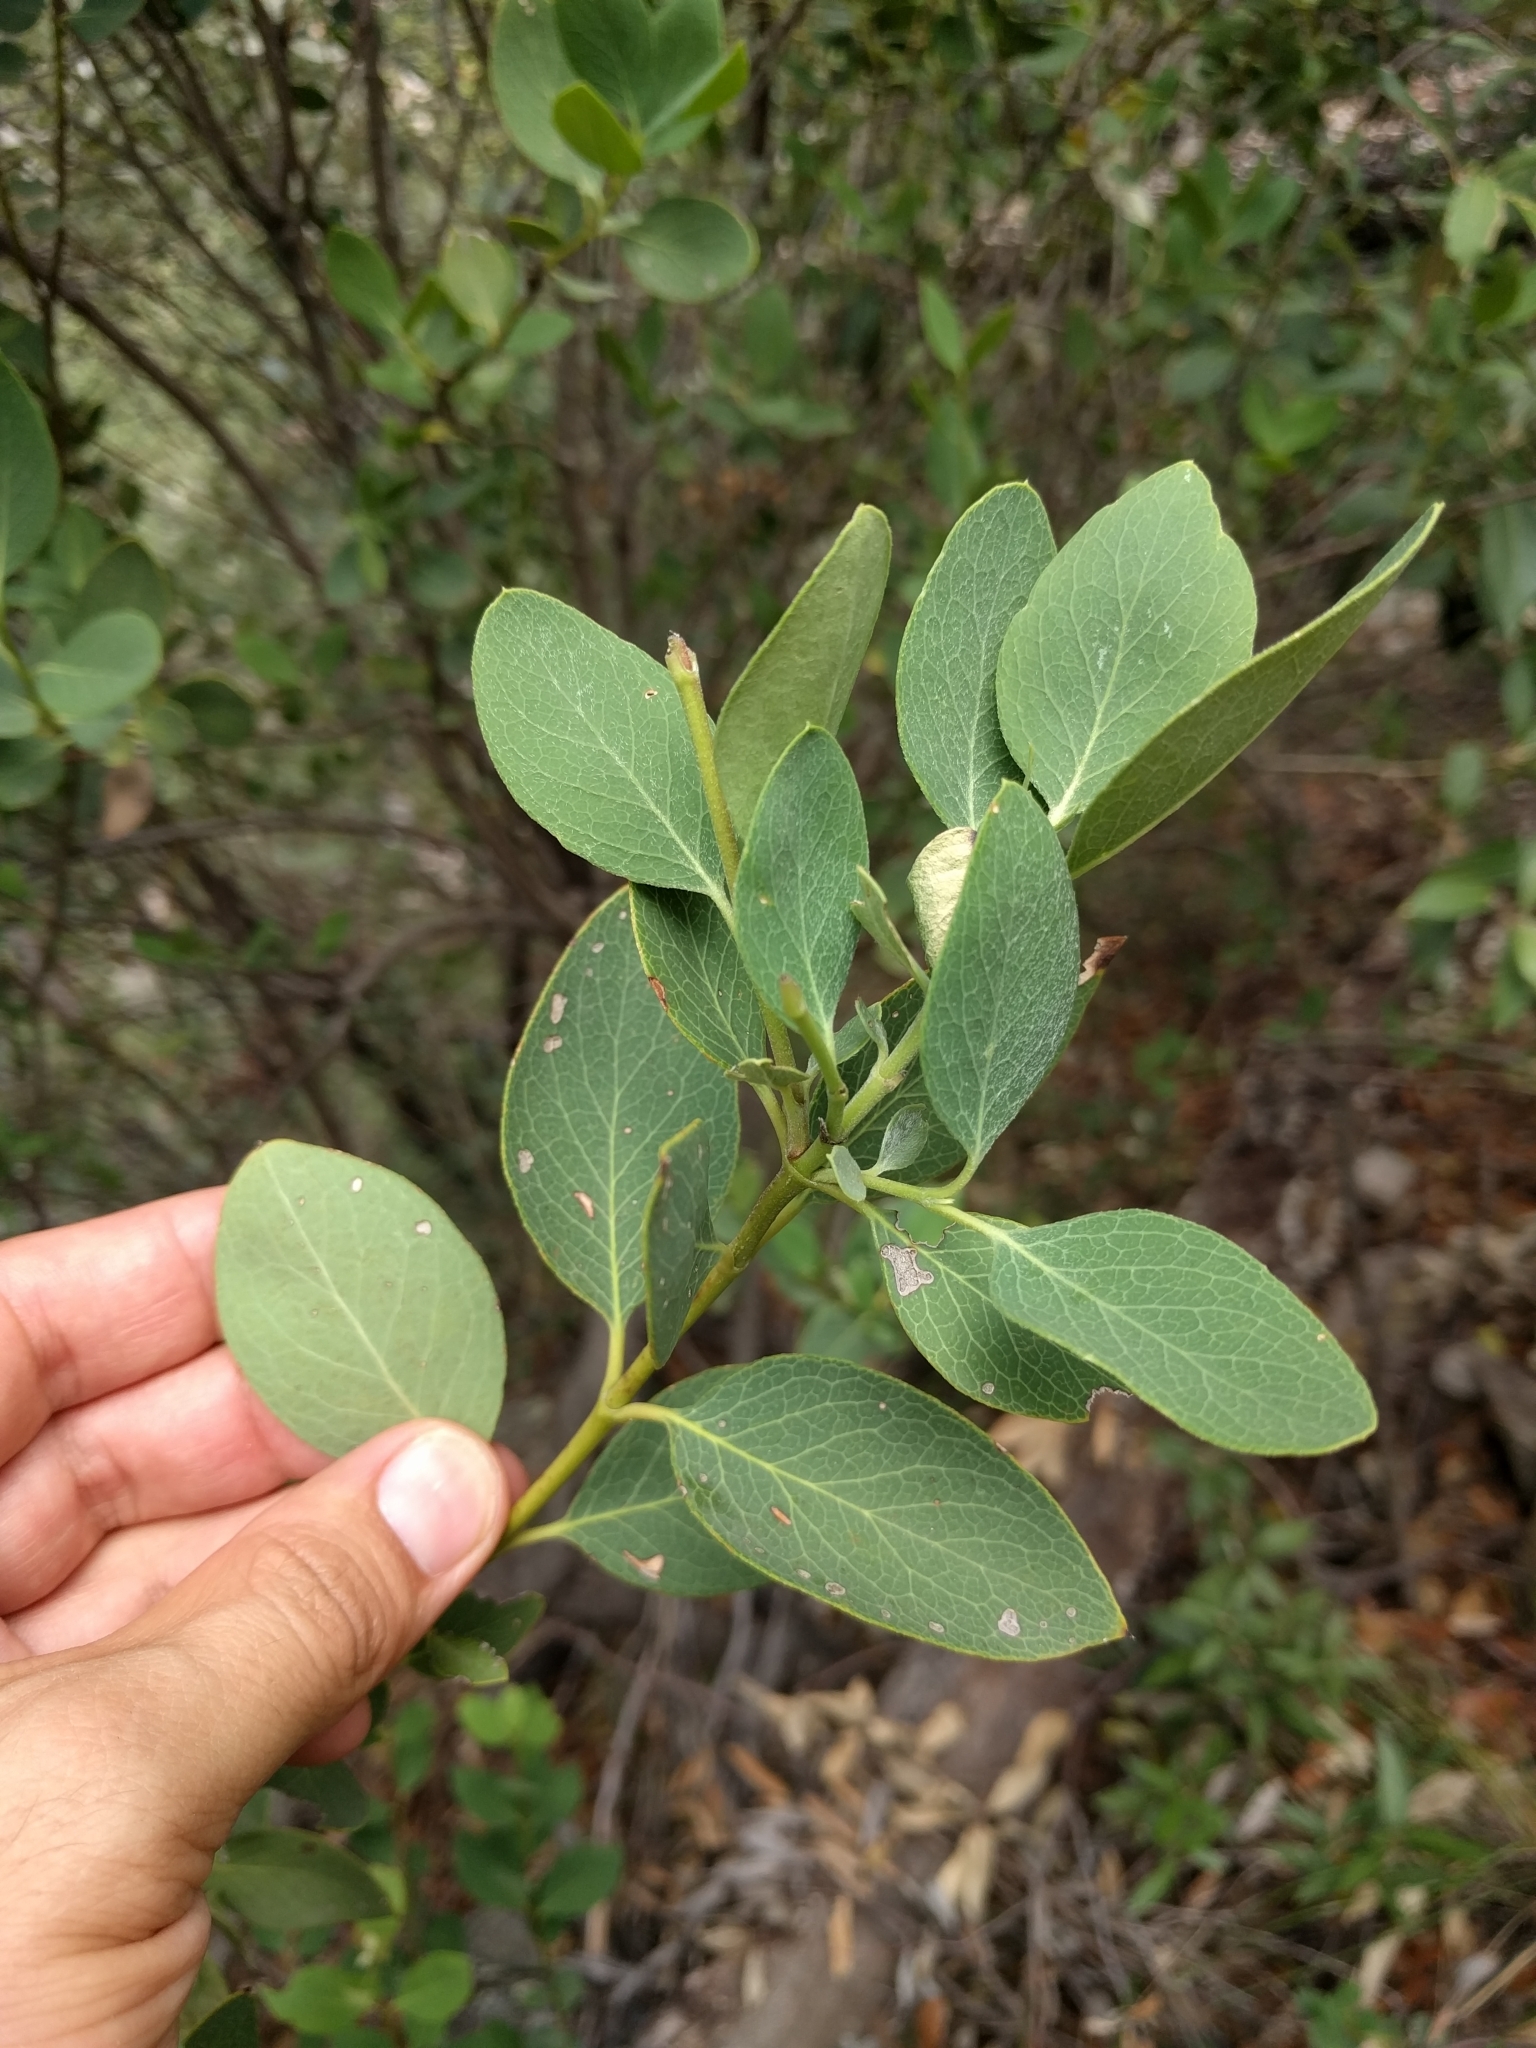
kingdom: Plantae
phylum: Tracheophyta
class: Magnoliopsida
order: Garryales
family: Garryaceae
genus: Garrya
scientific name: Garrya wrightii
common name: Wright's silktassel
